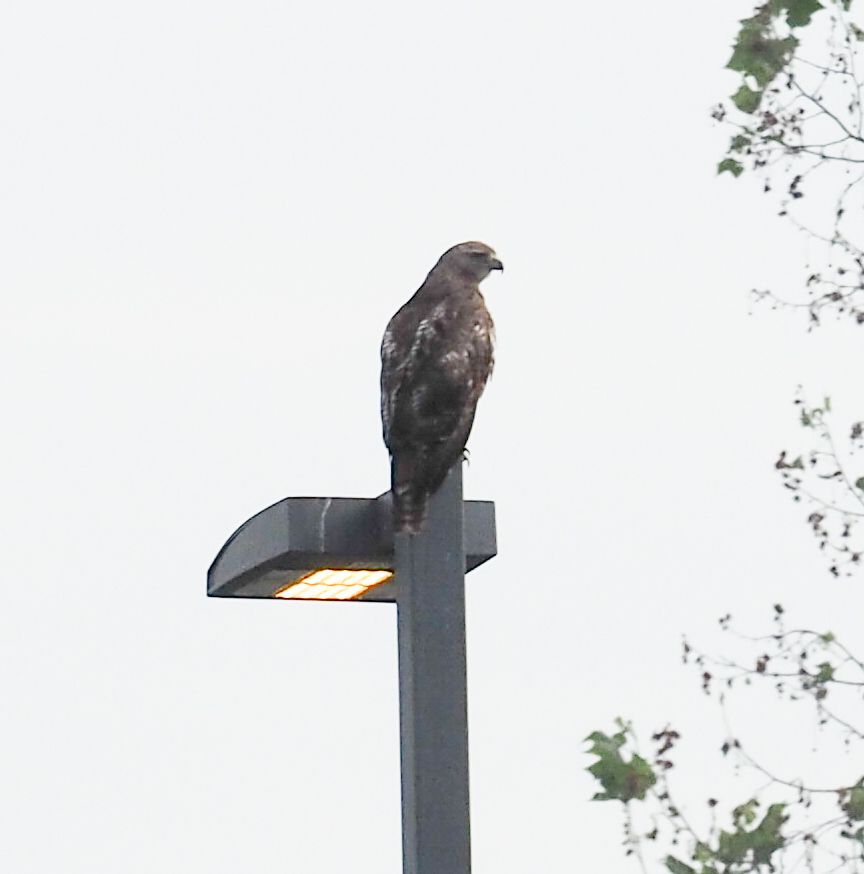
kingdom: Animalia
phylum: Chordata
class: Aves
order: Accipitriformes
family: Accipitridae
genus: Buteo
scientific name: Buteo jamaicensis
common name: Red-tailed hawk
